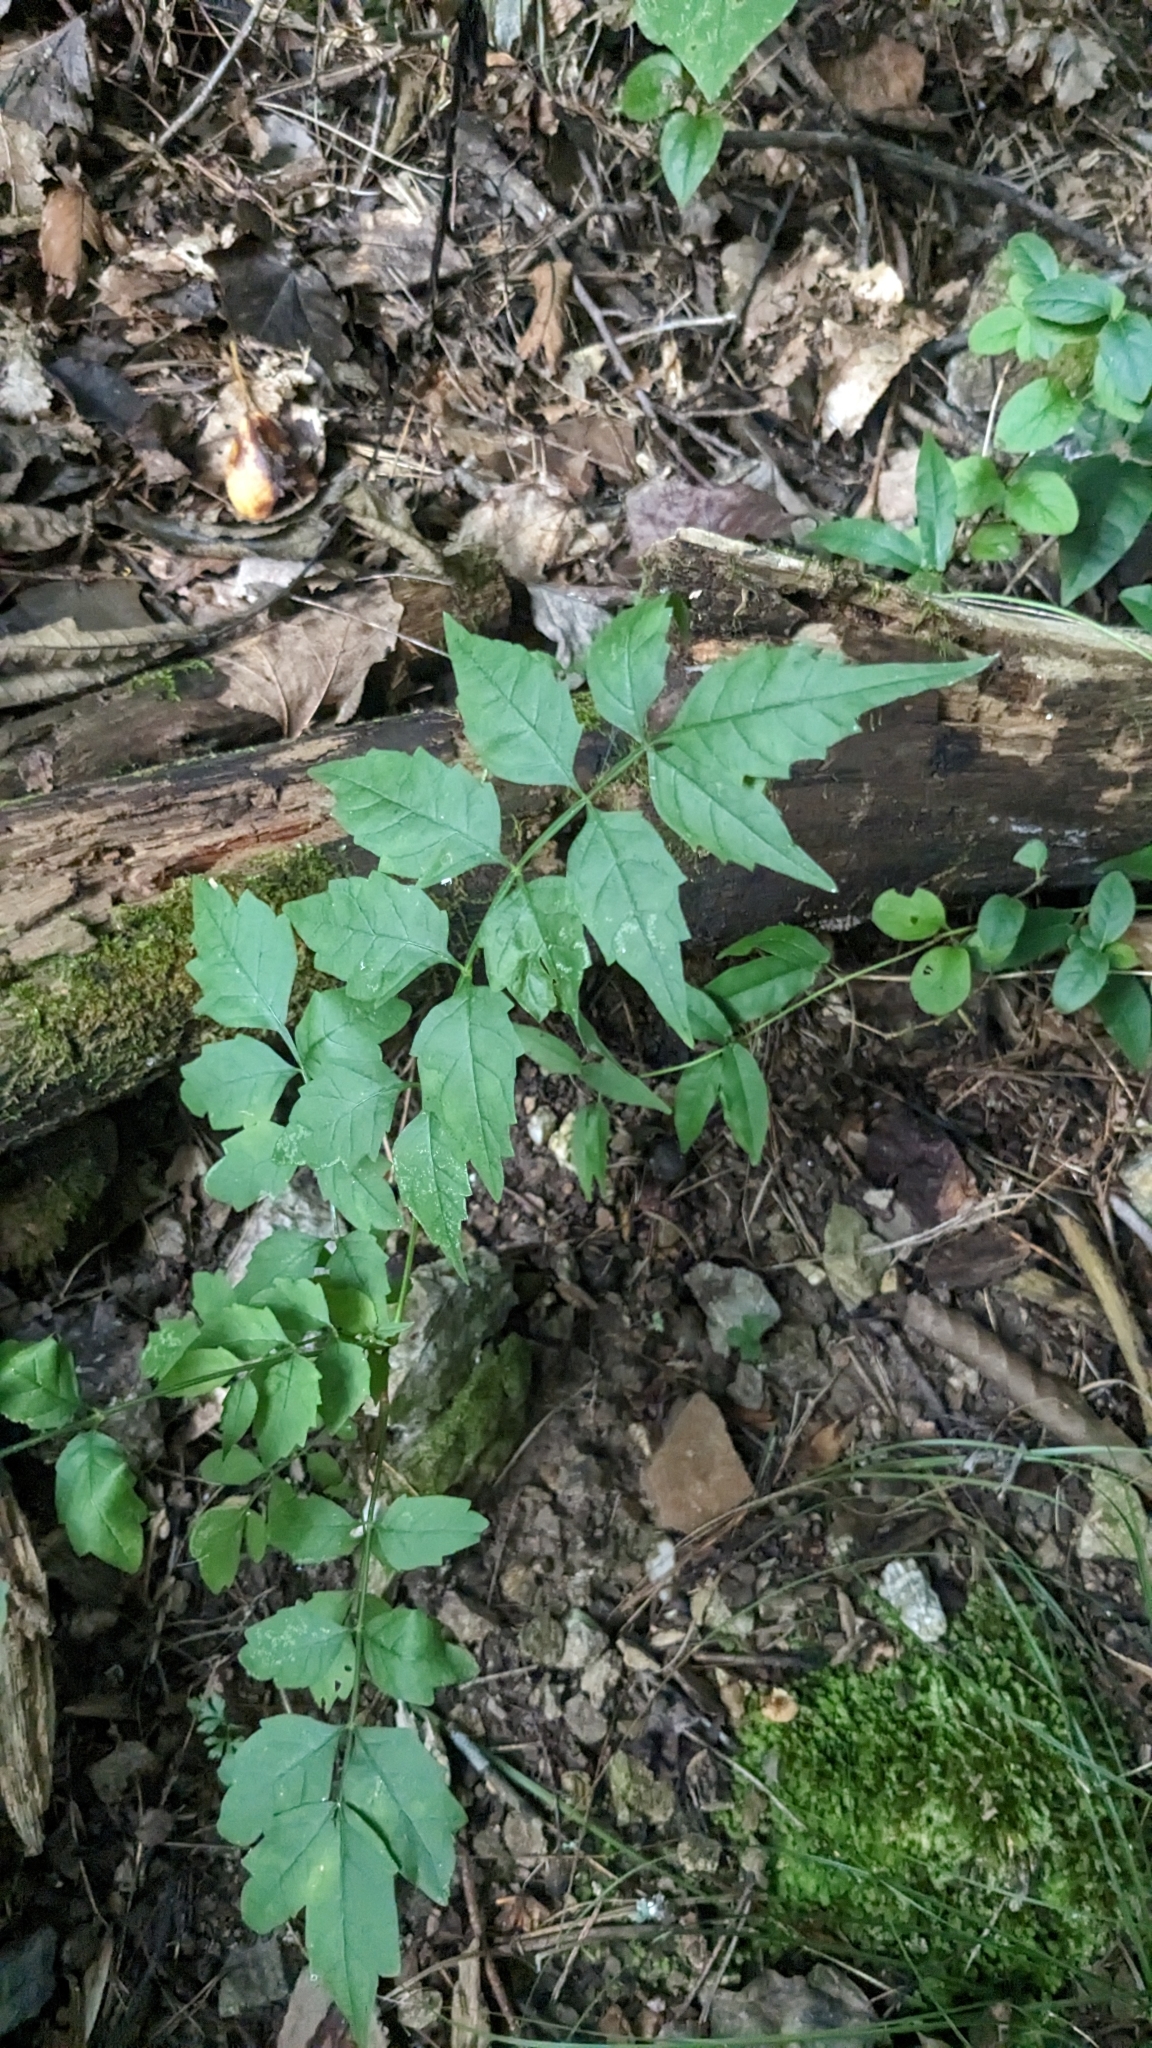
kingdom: Plantae
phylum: Tracheophyta
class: Magnoliopsida
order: Lamiales
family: Bignoniaceae
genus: Campsis
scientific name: Campsis radicans
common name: Trumpet-creeper
